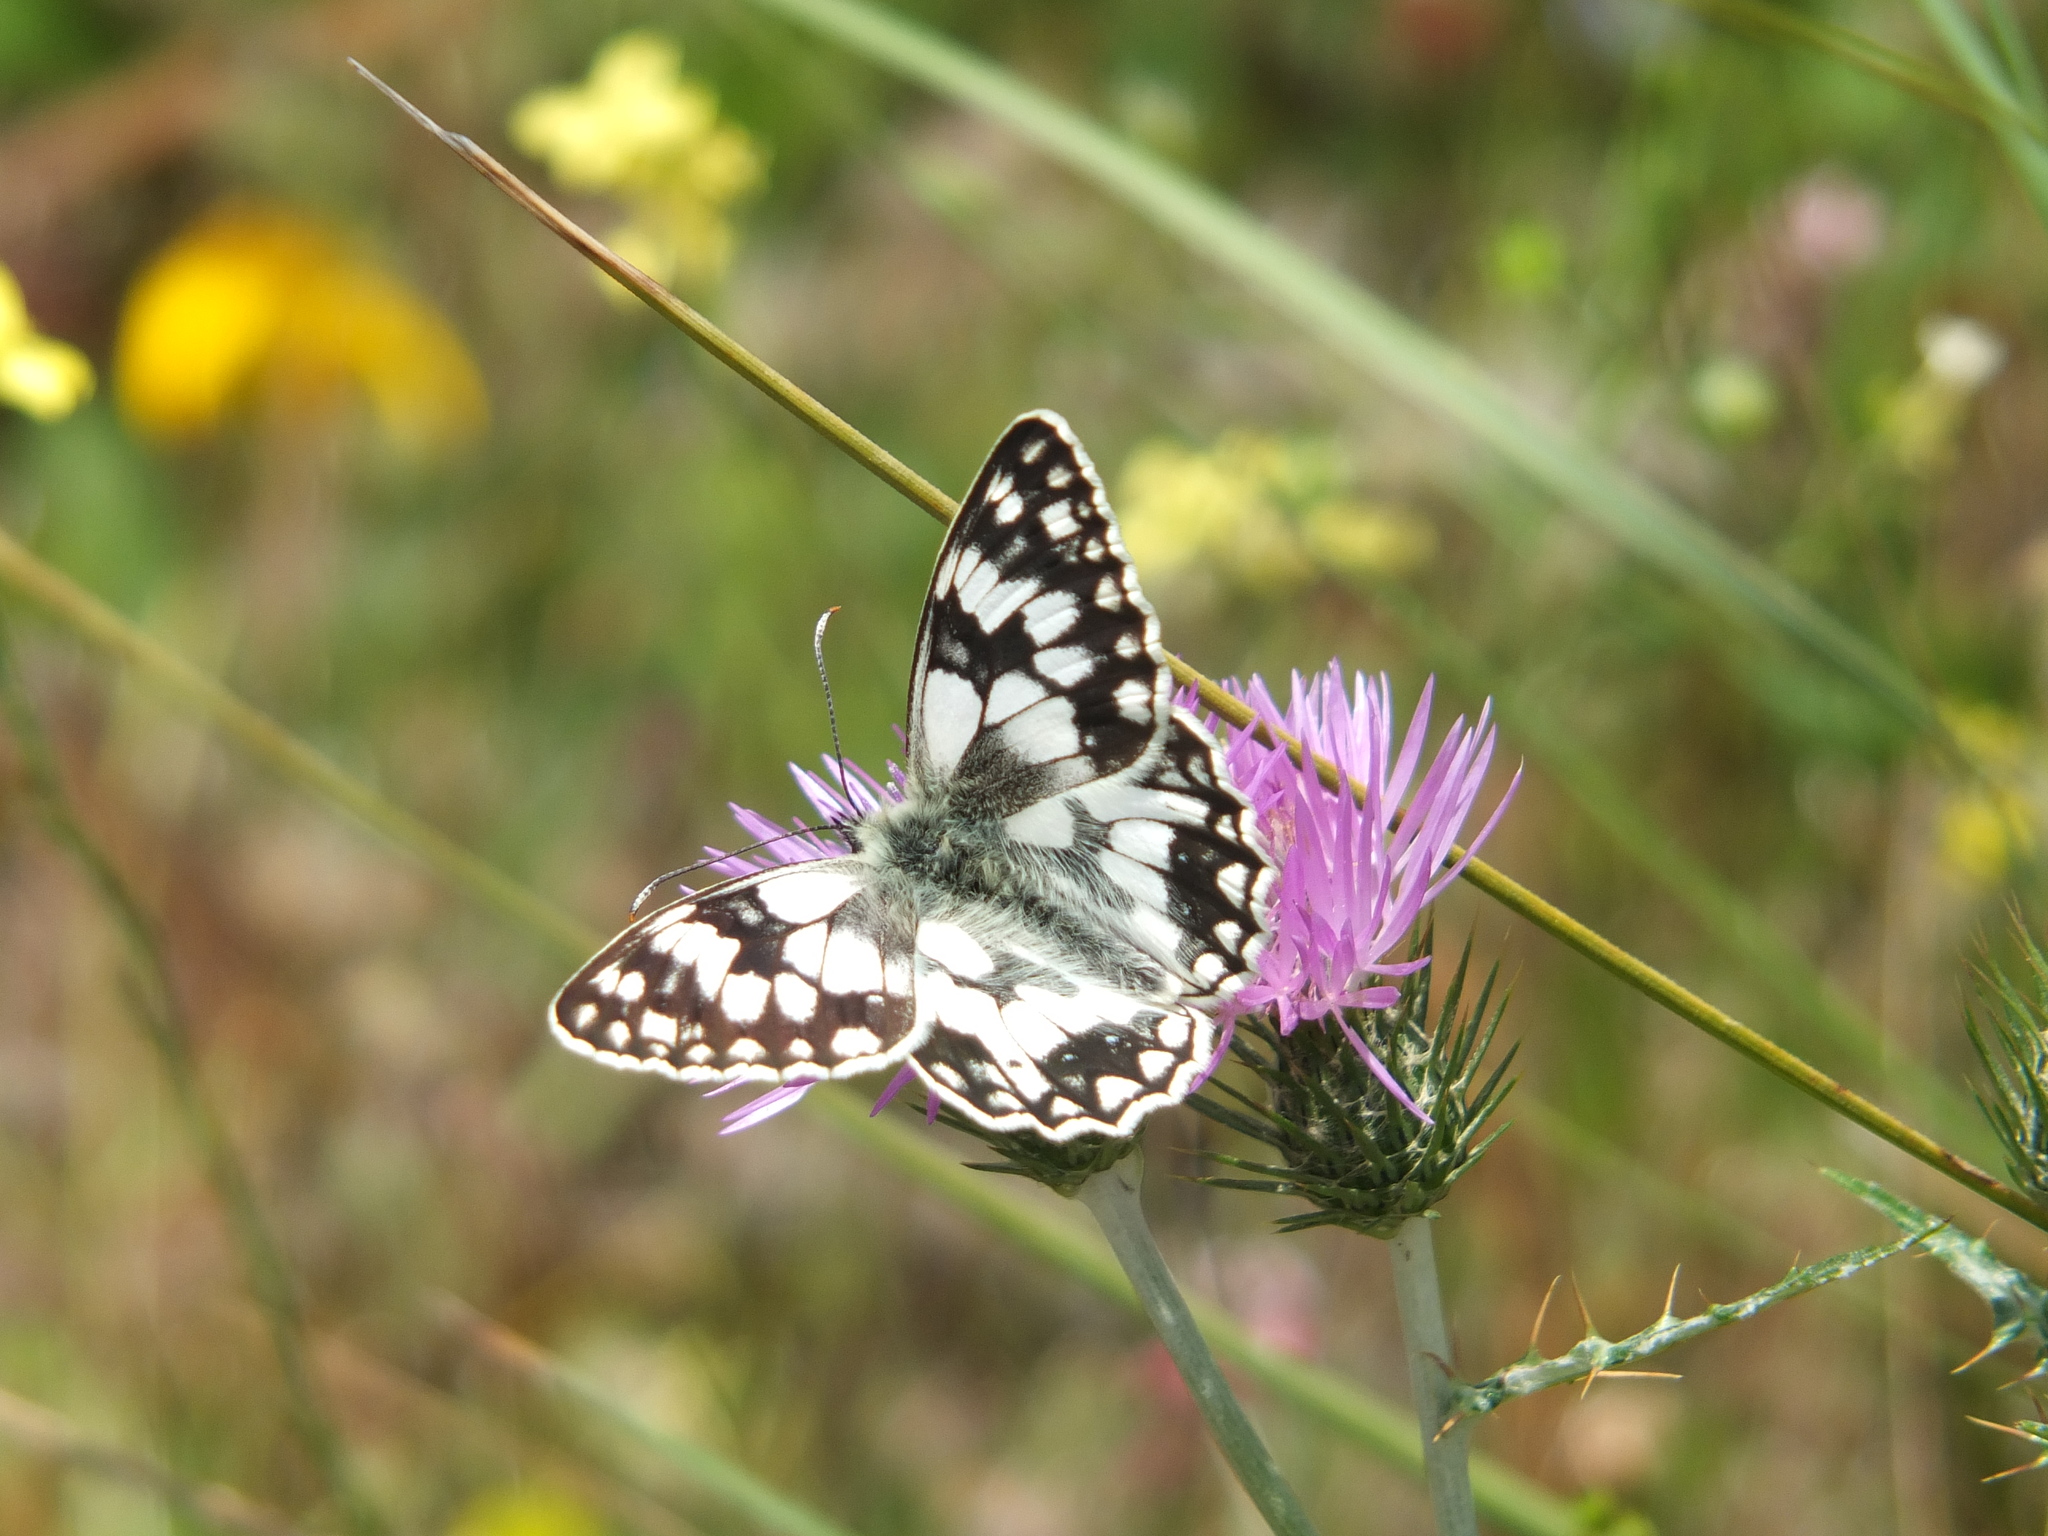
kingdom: Animalia
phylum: Arthropoda
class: Insecta
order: Lepidoptera
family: Nymphalidae
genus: Melanargia
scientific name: Melanargia lucasi
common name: Moroccan marbled white
